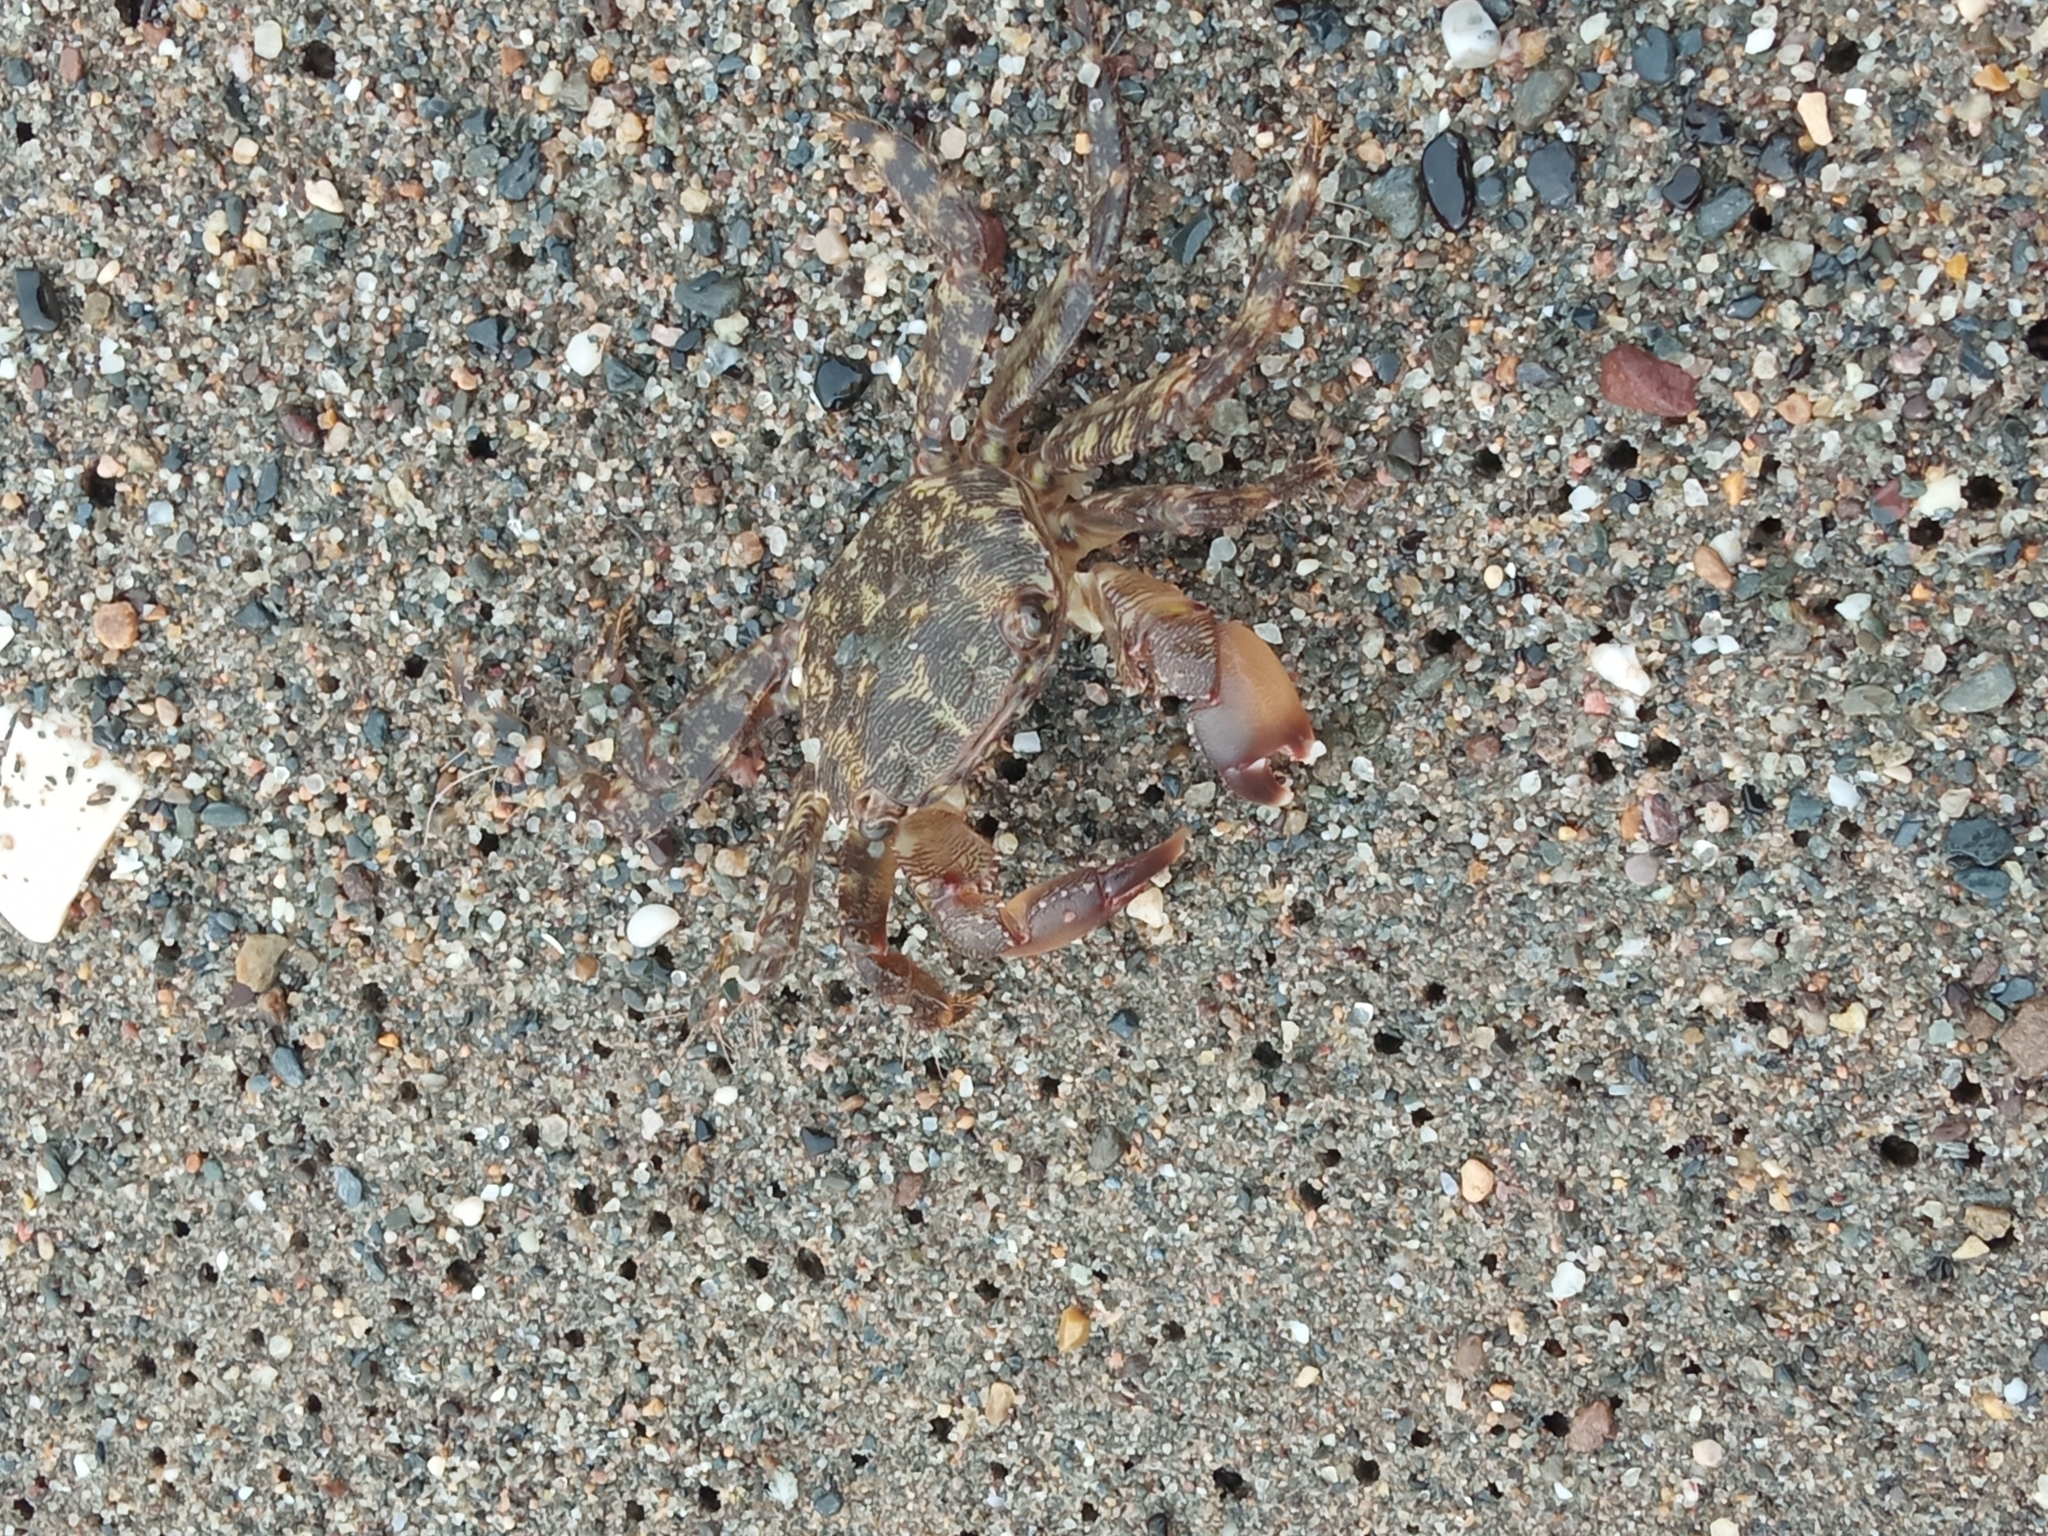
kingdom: Animalia
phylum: Arthropoda
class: Malacostraca
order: Decapoda
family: Grapsidae
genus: Pachygrapsus
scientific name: Pachygrapsus marmoratus
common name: Marbled rock crab
